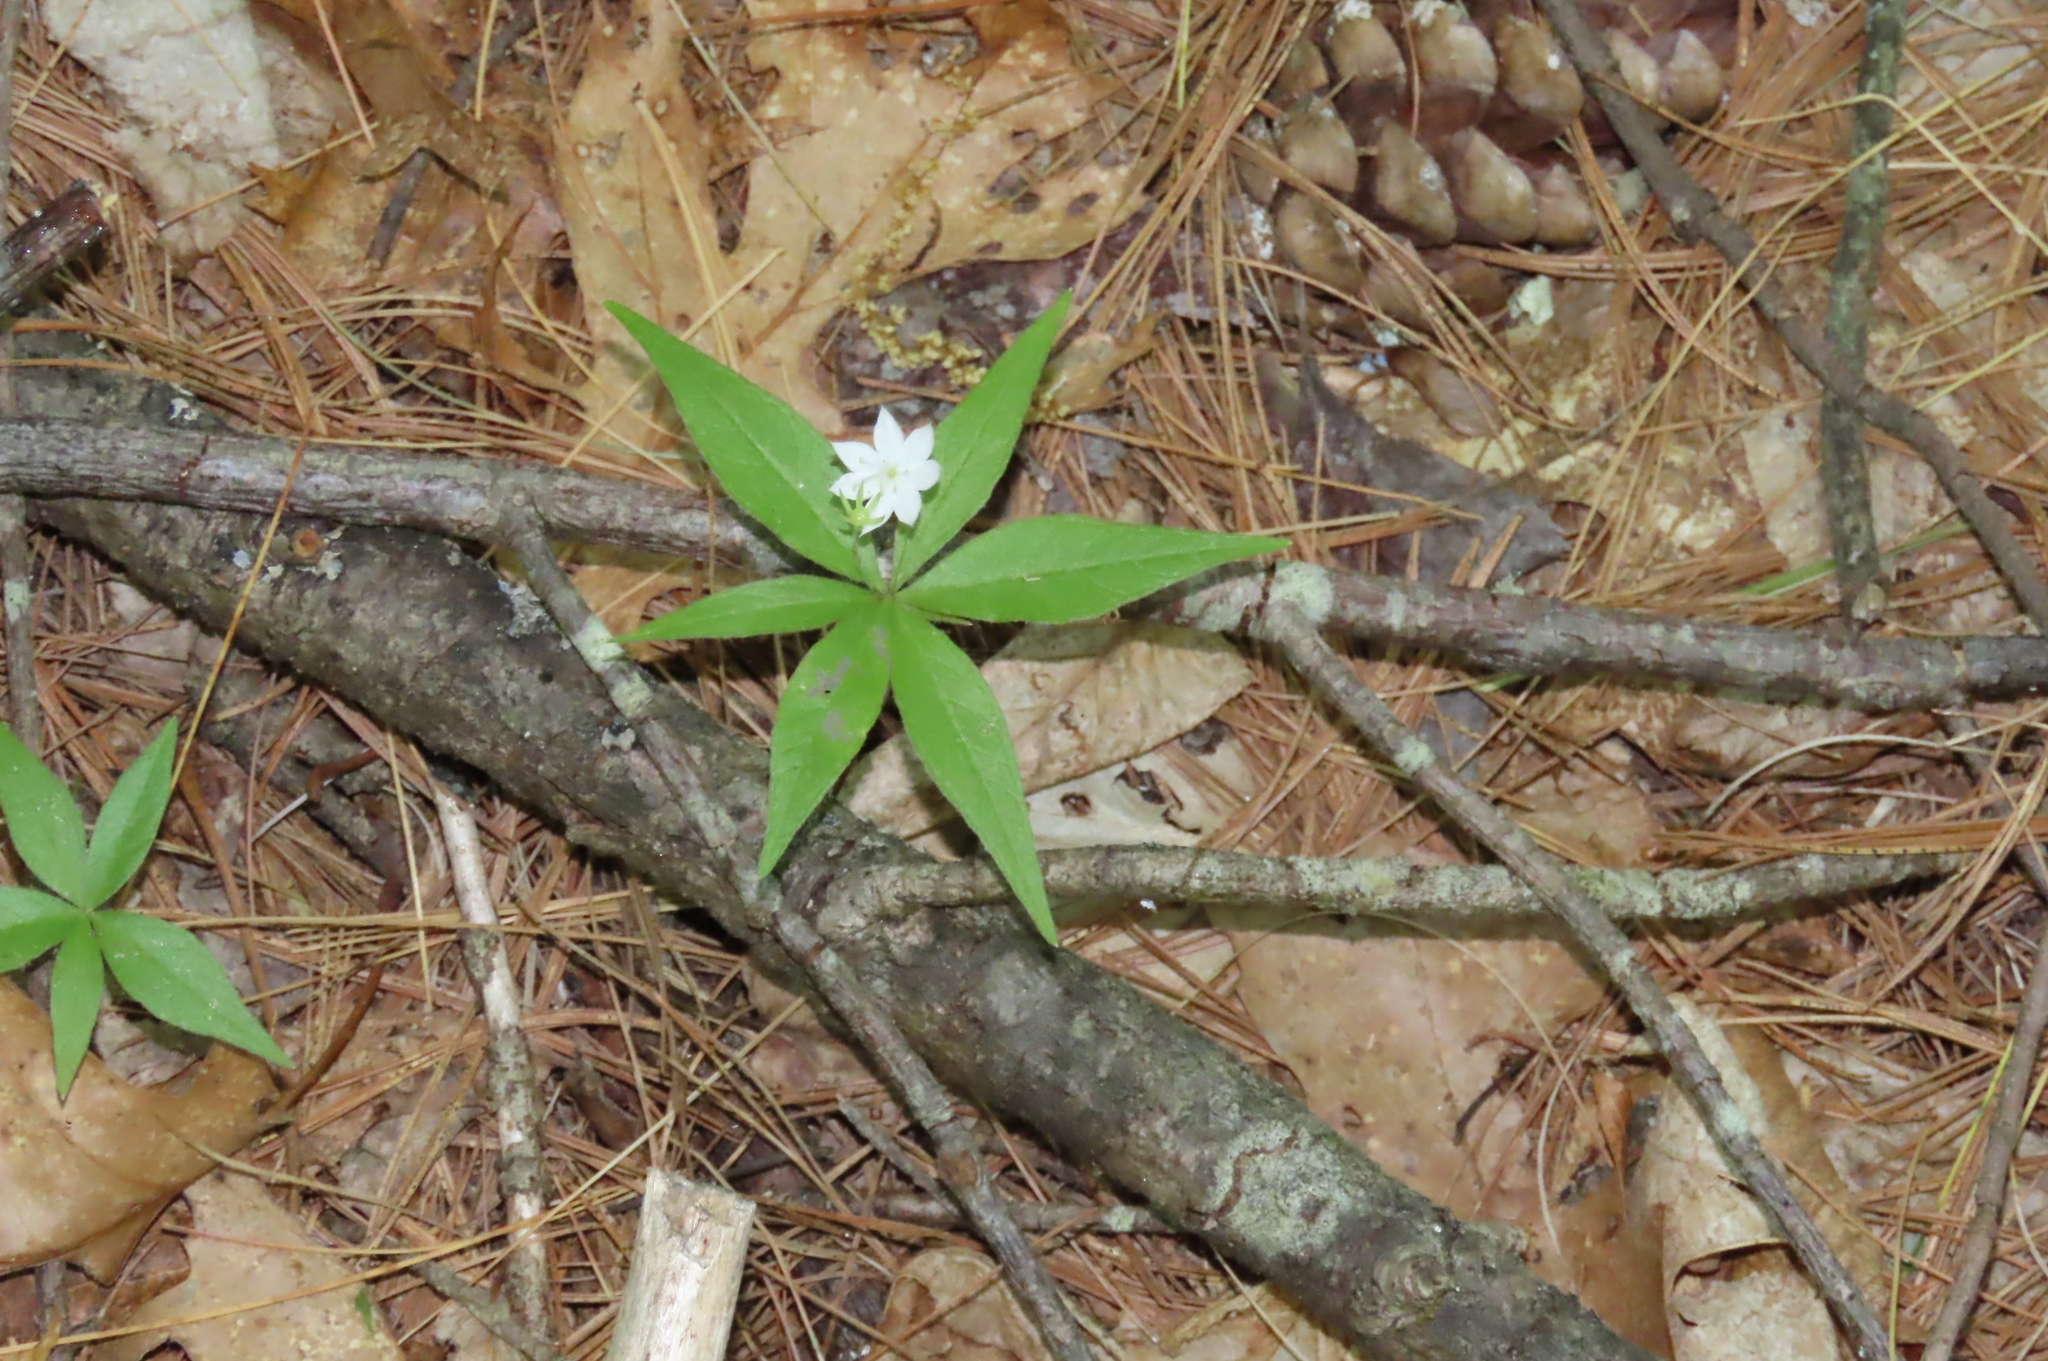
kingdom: Plantae
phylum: Tracheophyta
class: Magnoliopsida
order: Ericales
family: Primulaceae
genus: Lysimachia
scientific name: Lysimachia borealis
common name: American starflower
